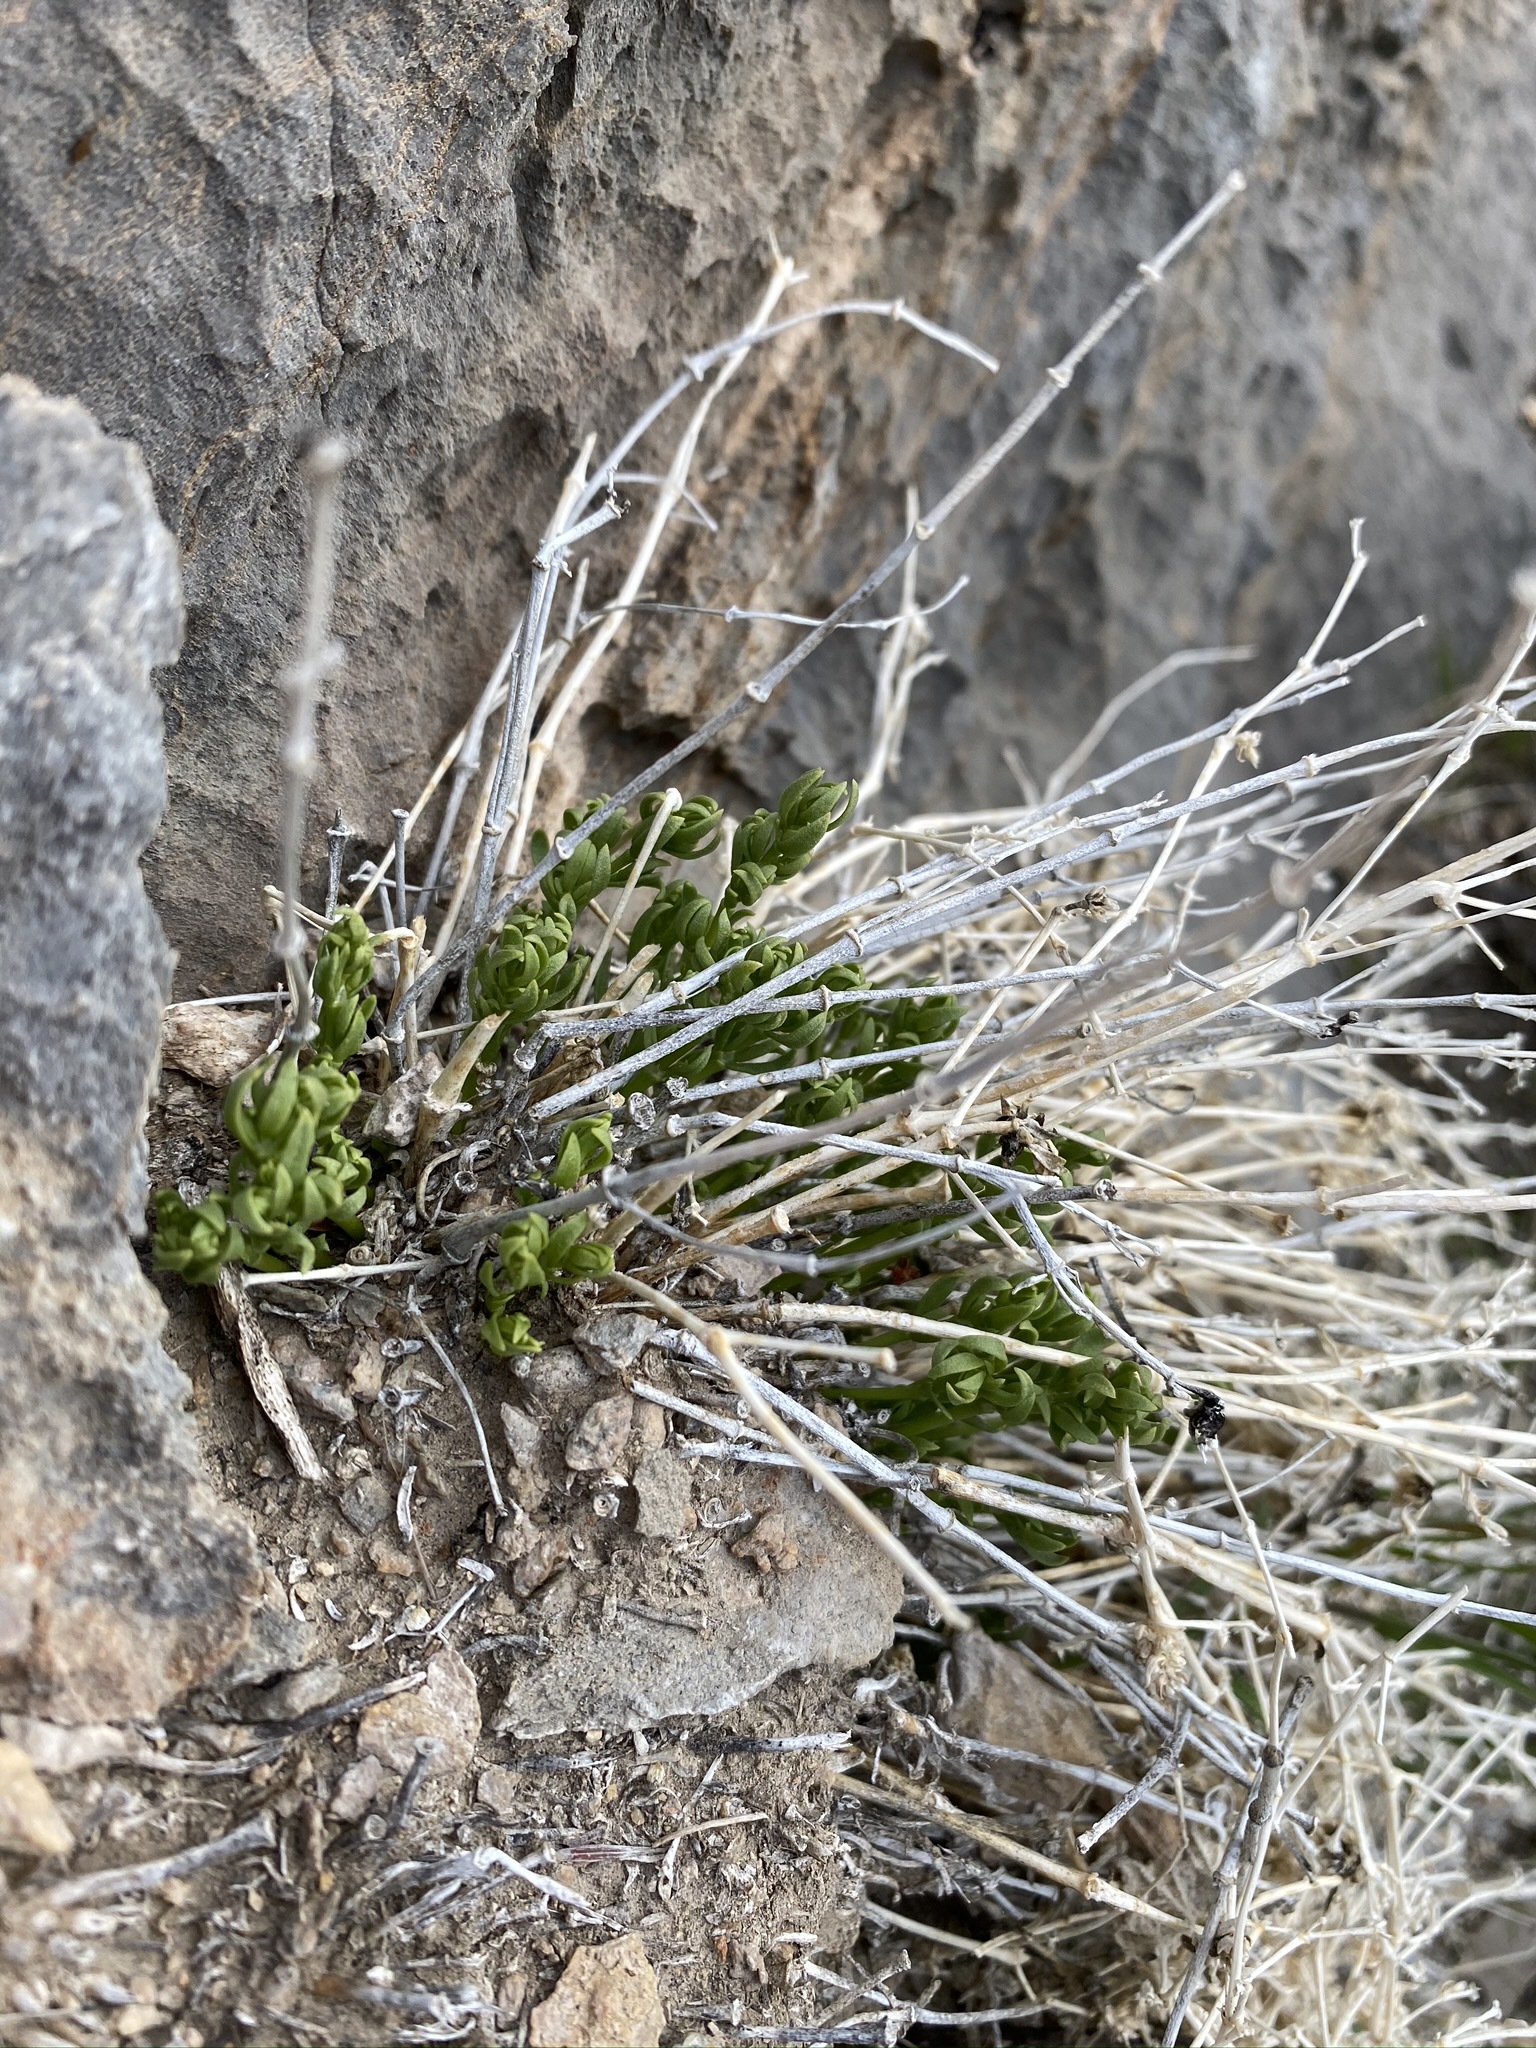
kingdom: Plantae
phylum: Tracheophyta
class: Magnoliopsida
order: Caryophyllales
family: Caryophyllaceae
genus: Scopulophila
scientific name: Scopulophila rixfordii
